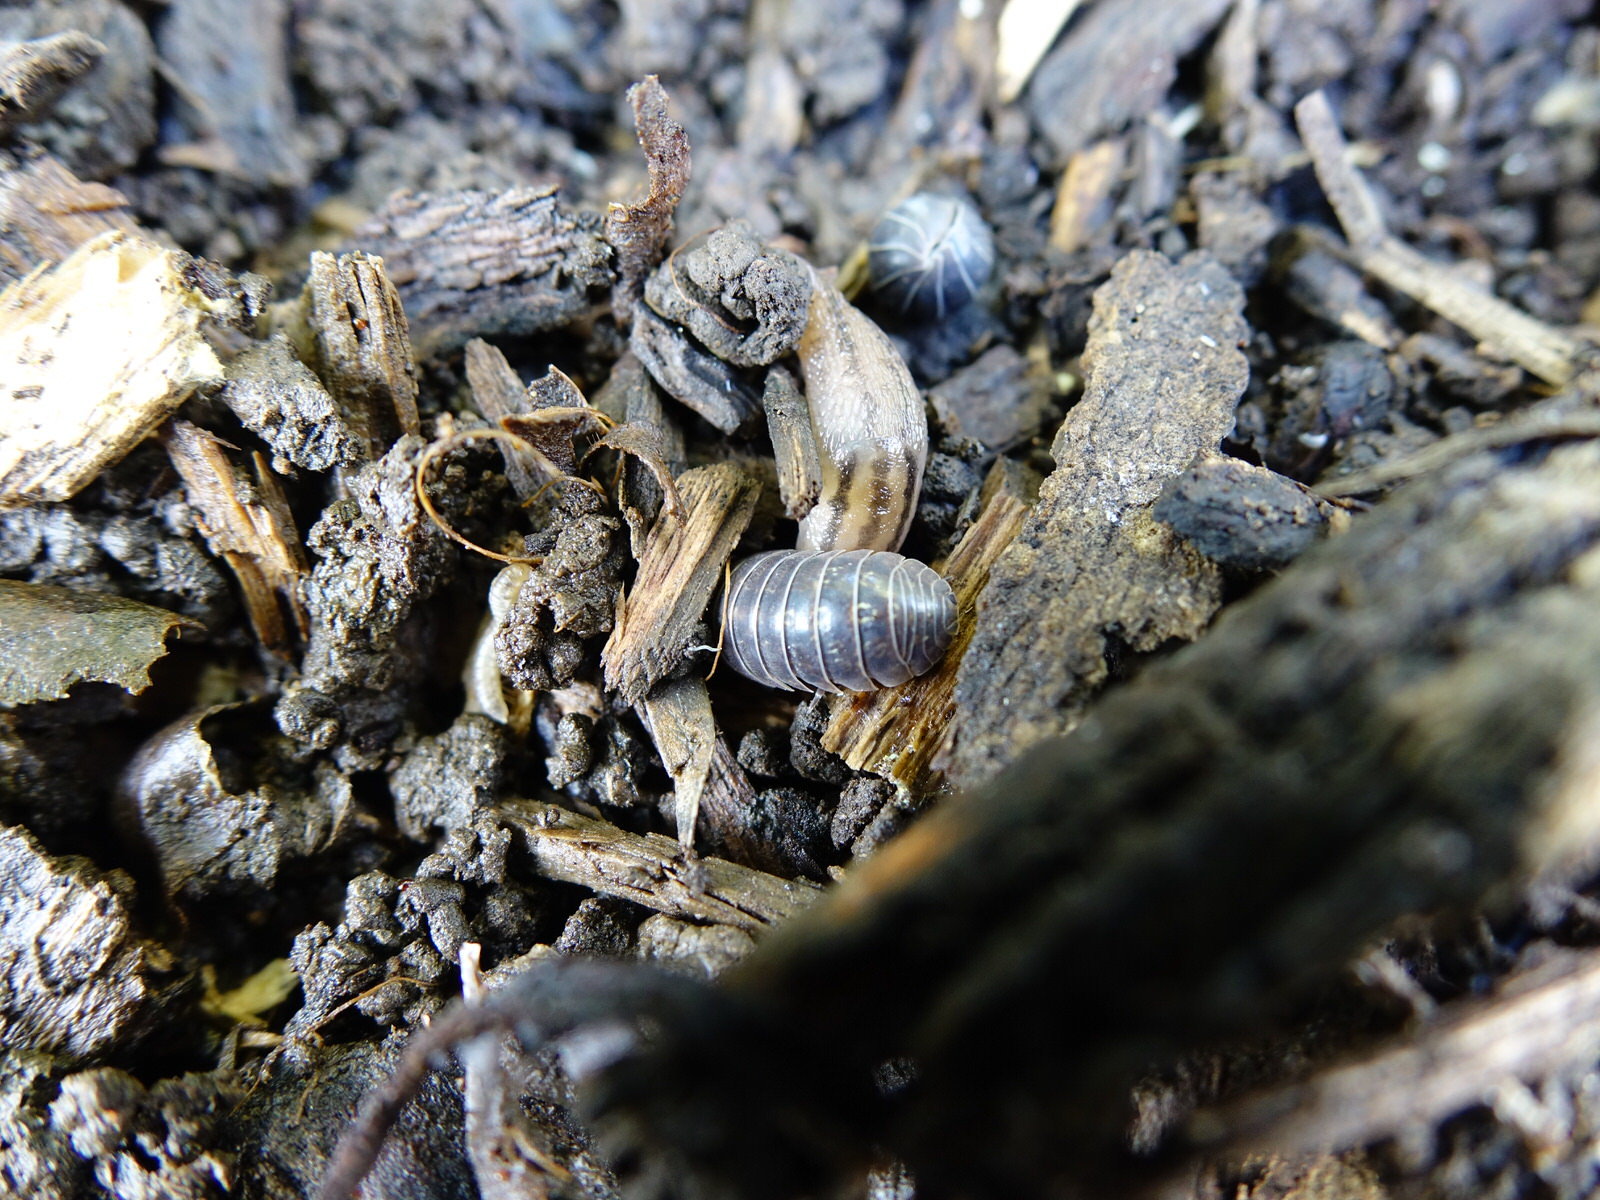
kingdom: Animalia
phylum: Mollusca
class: Gastropoda
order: Stylommatophora
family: Limacidae
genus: Ambigolimax
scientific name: Ambigolimax
